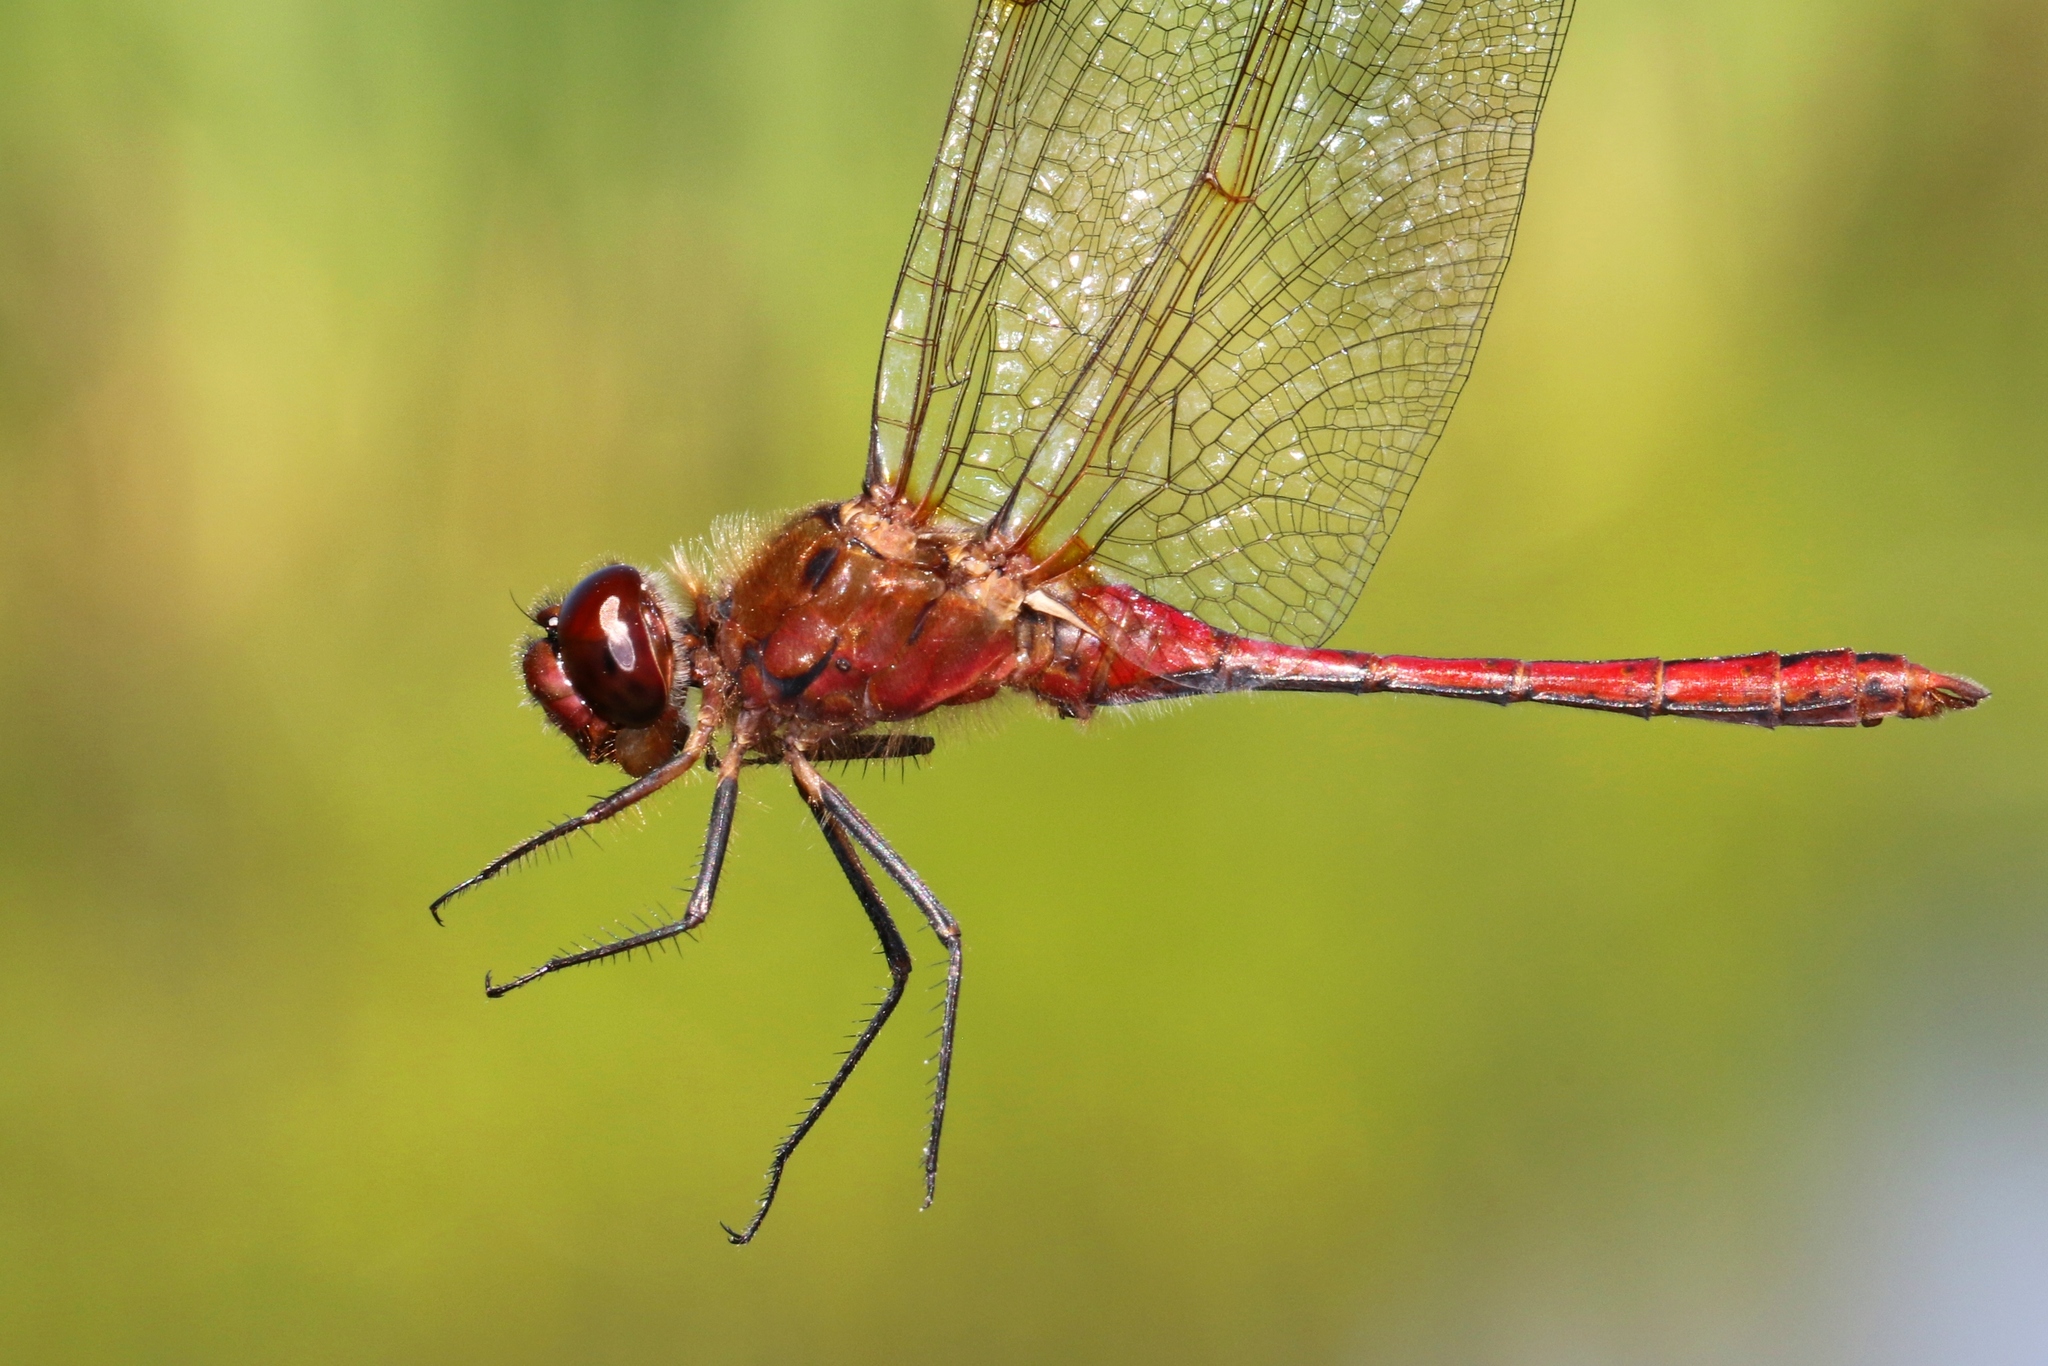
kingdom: Animalia
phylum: Arthropoda
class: Insecta
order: Odonata
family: Libellulidae
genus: Sympetrum
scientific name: Sympetrum costiferum
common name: Saffron-winged meadowhawk
